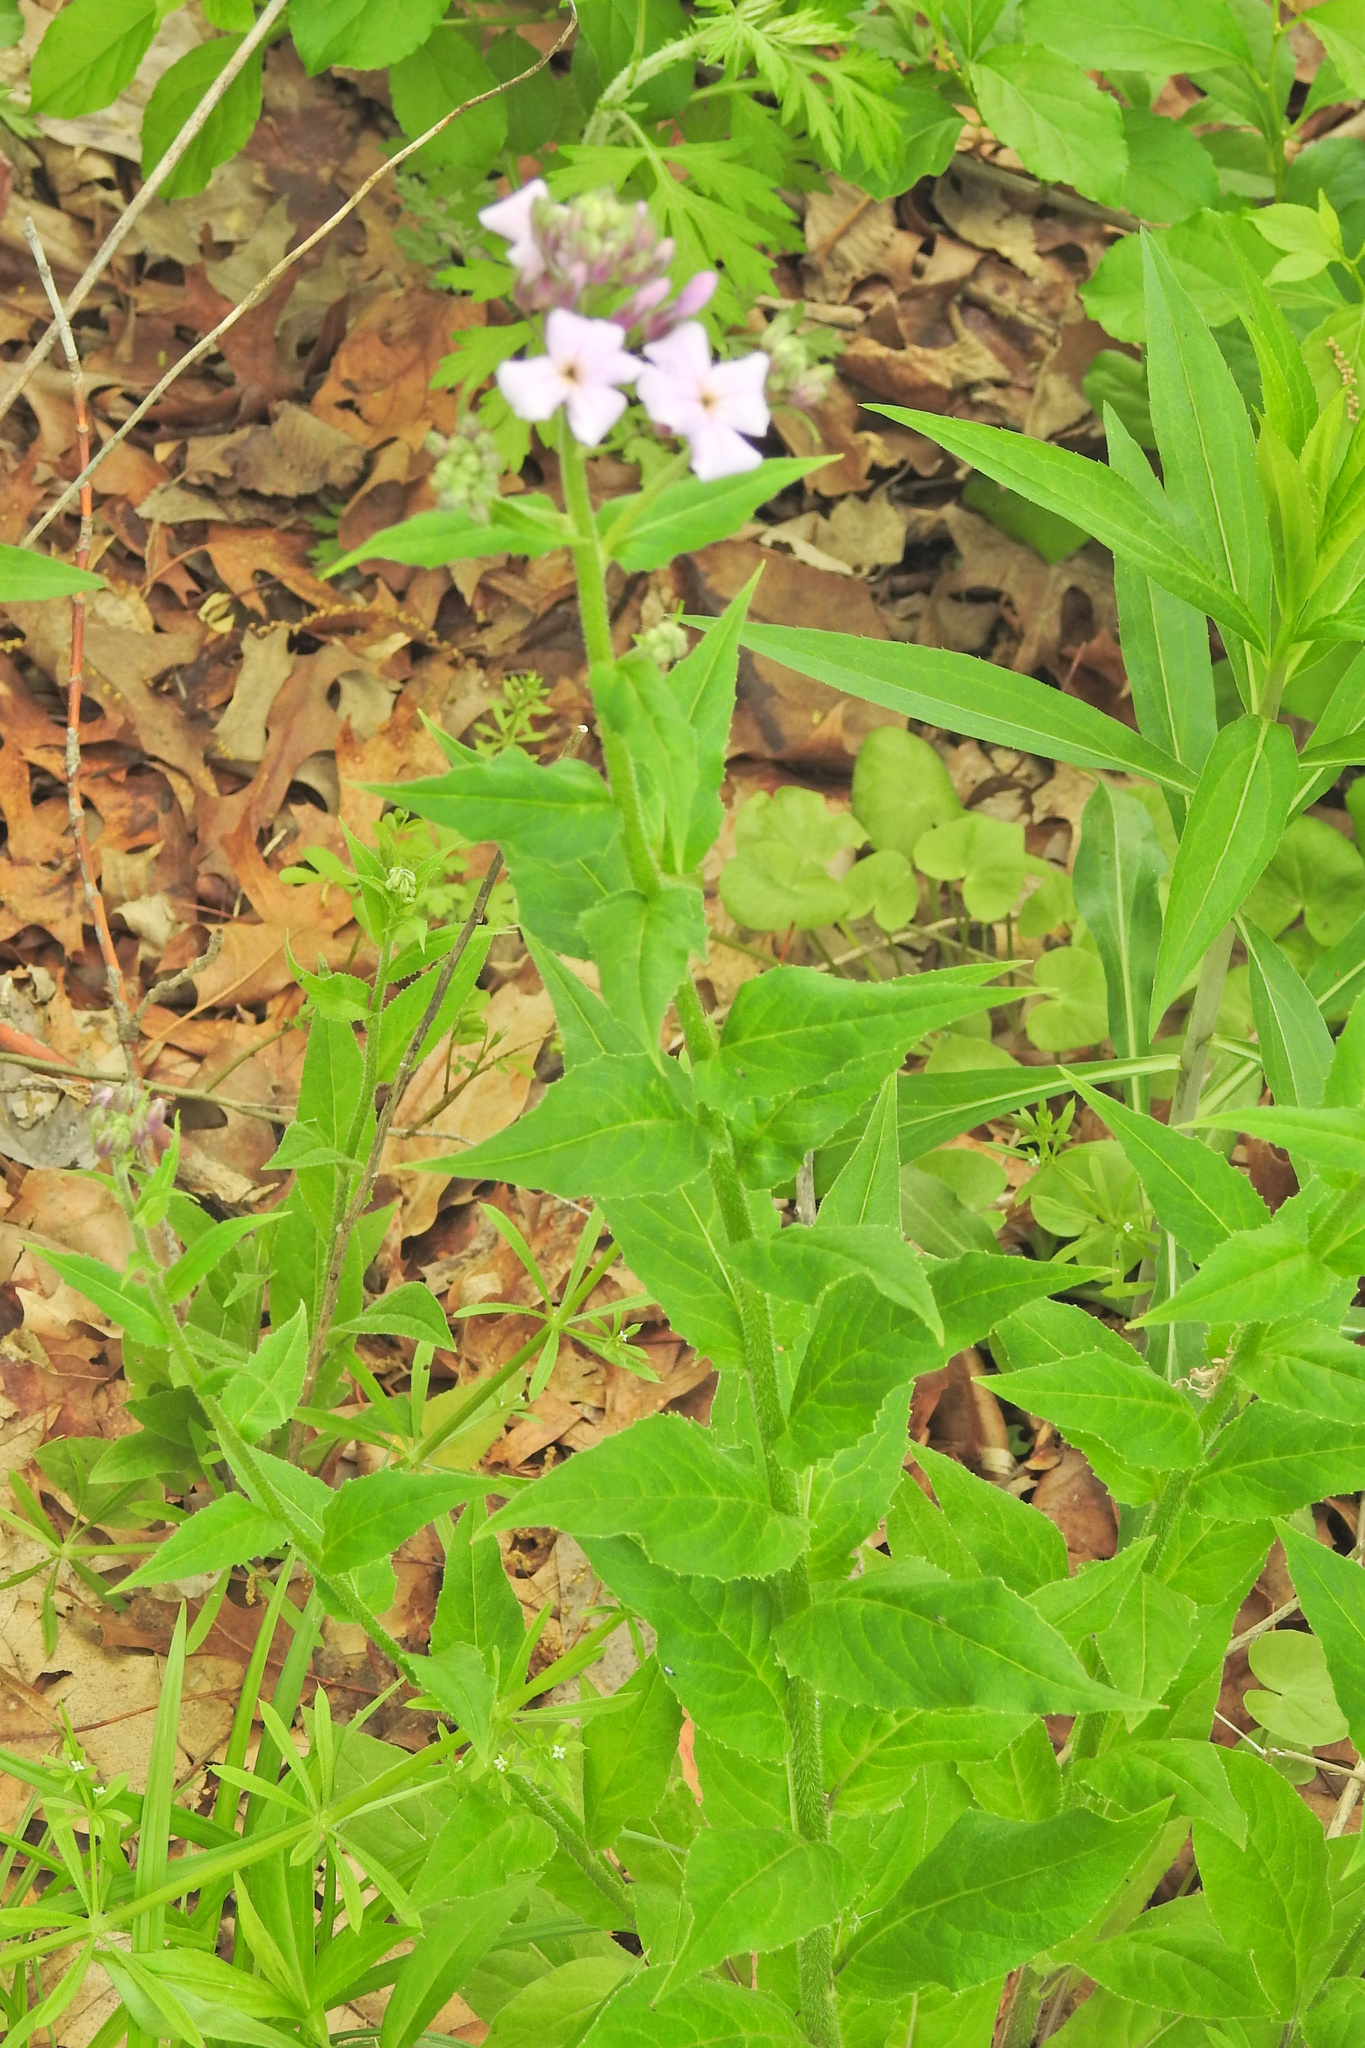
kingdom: Plantae
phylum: Tracheophyta
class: Magnoliopsida
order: Brassicales
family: Brassicaceae
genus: Hesperis
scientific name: Hesperis matronalis
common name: Dame's-violet
